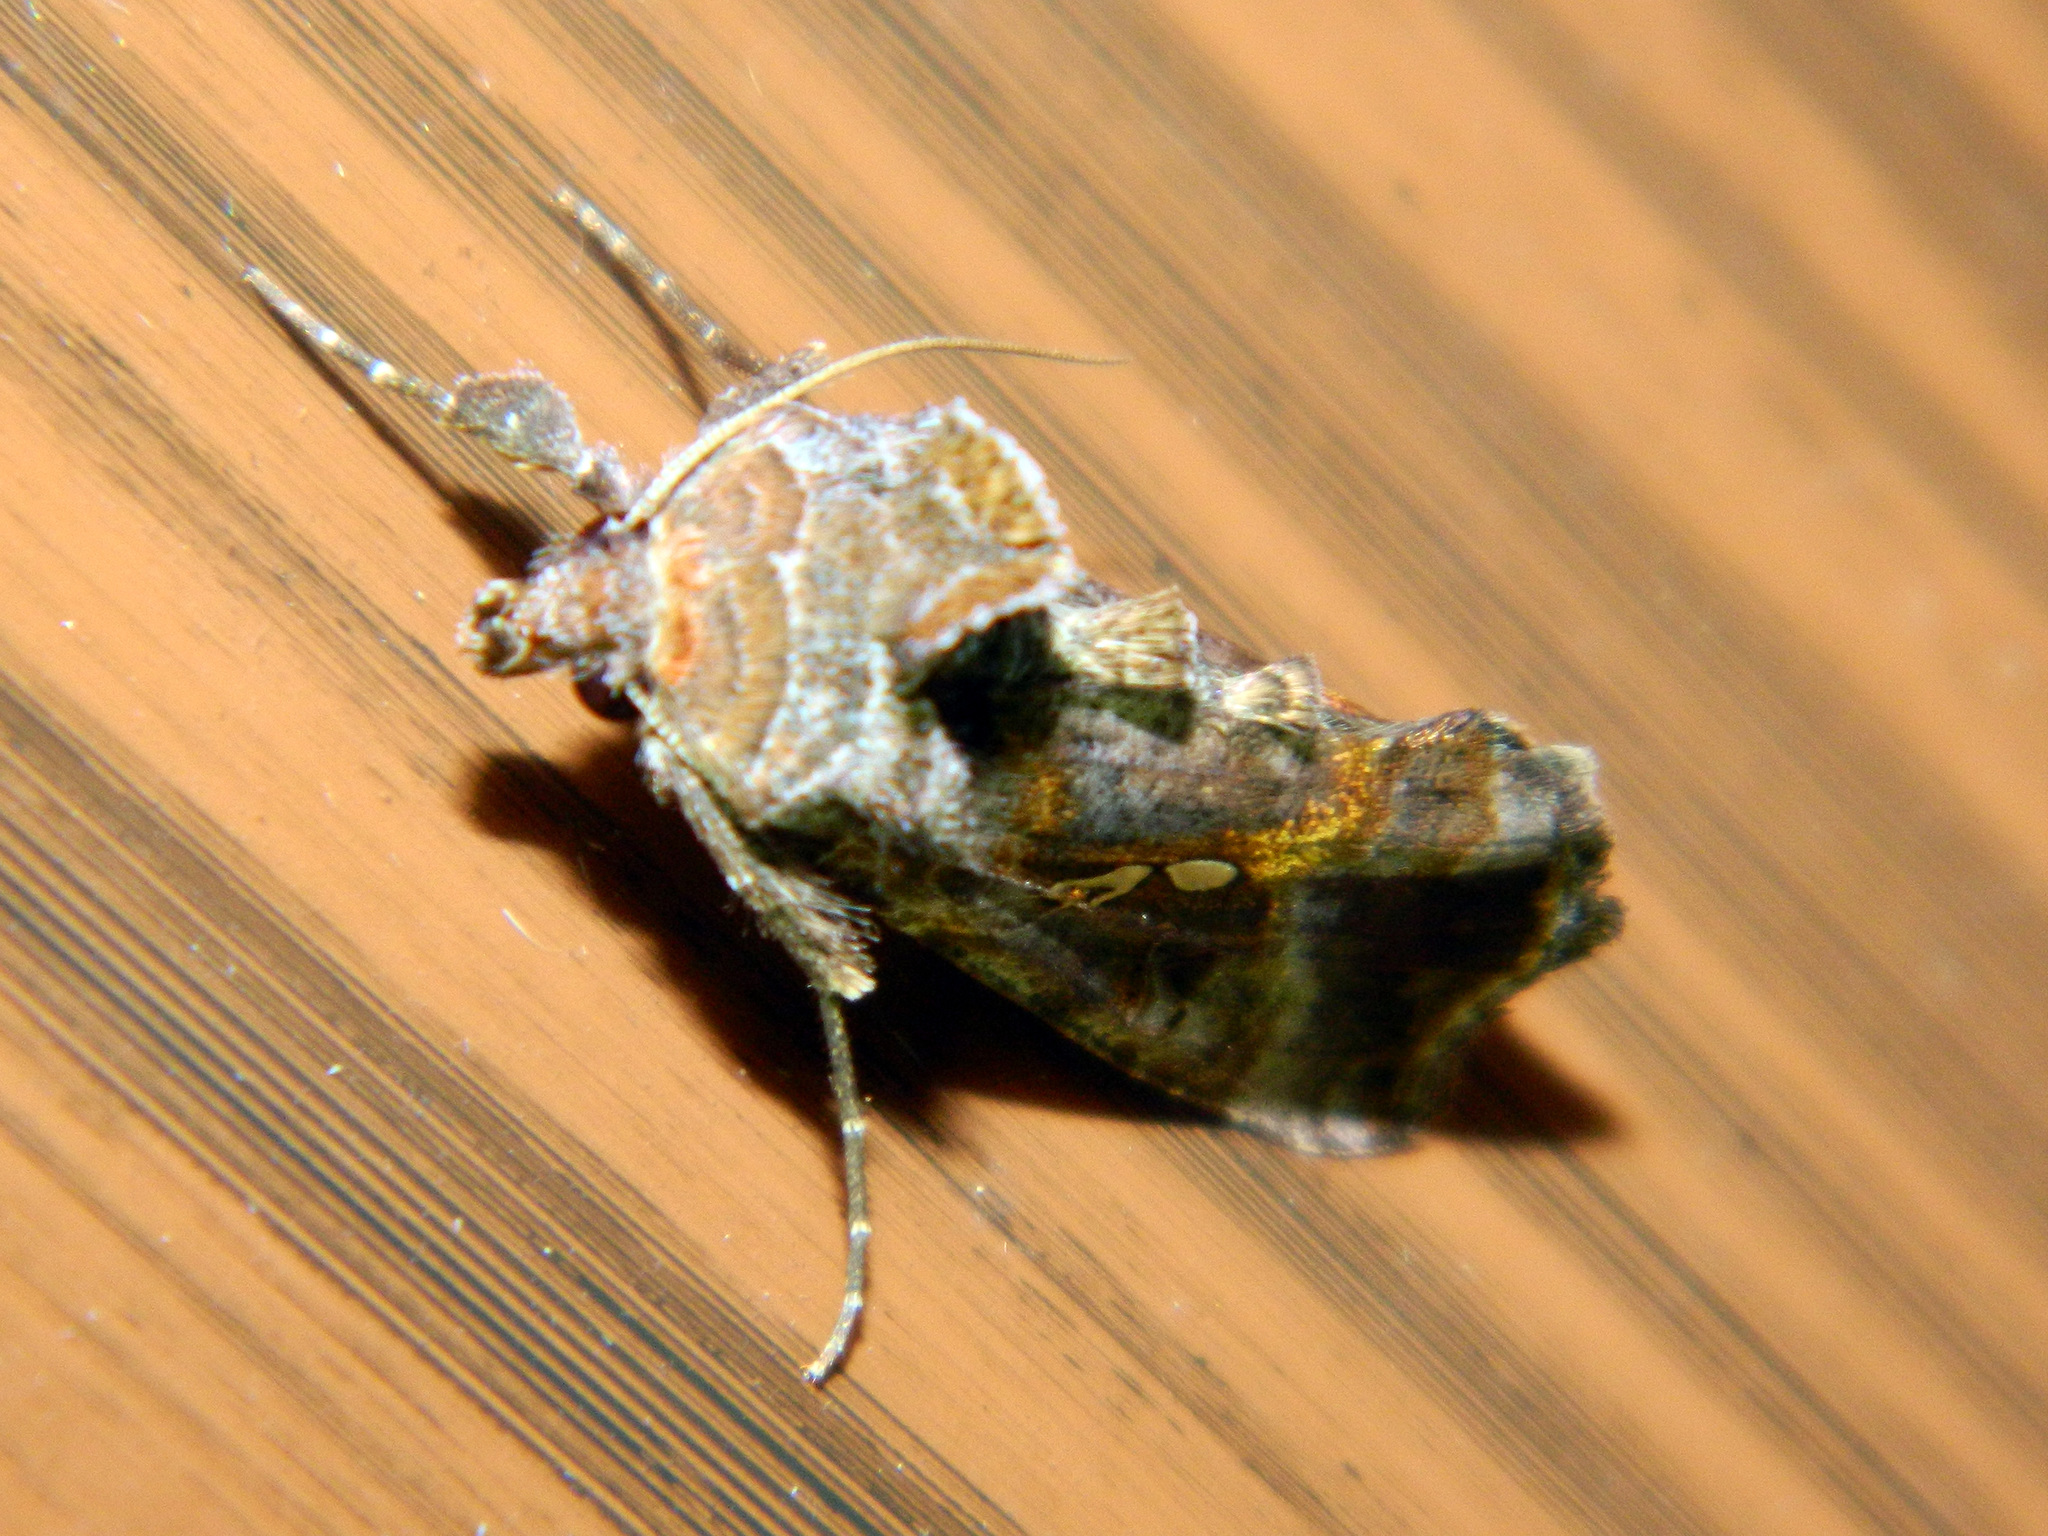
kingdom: Animalia
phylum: Arthropoda
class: Insecta
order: Lepidoptera
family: Noctuidae
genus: Autographa
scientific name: Autographa precationis
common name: Common looper moth
